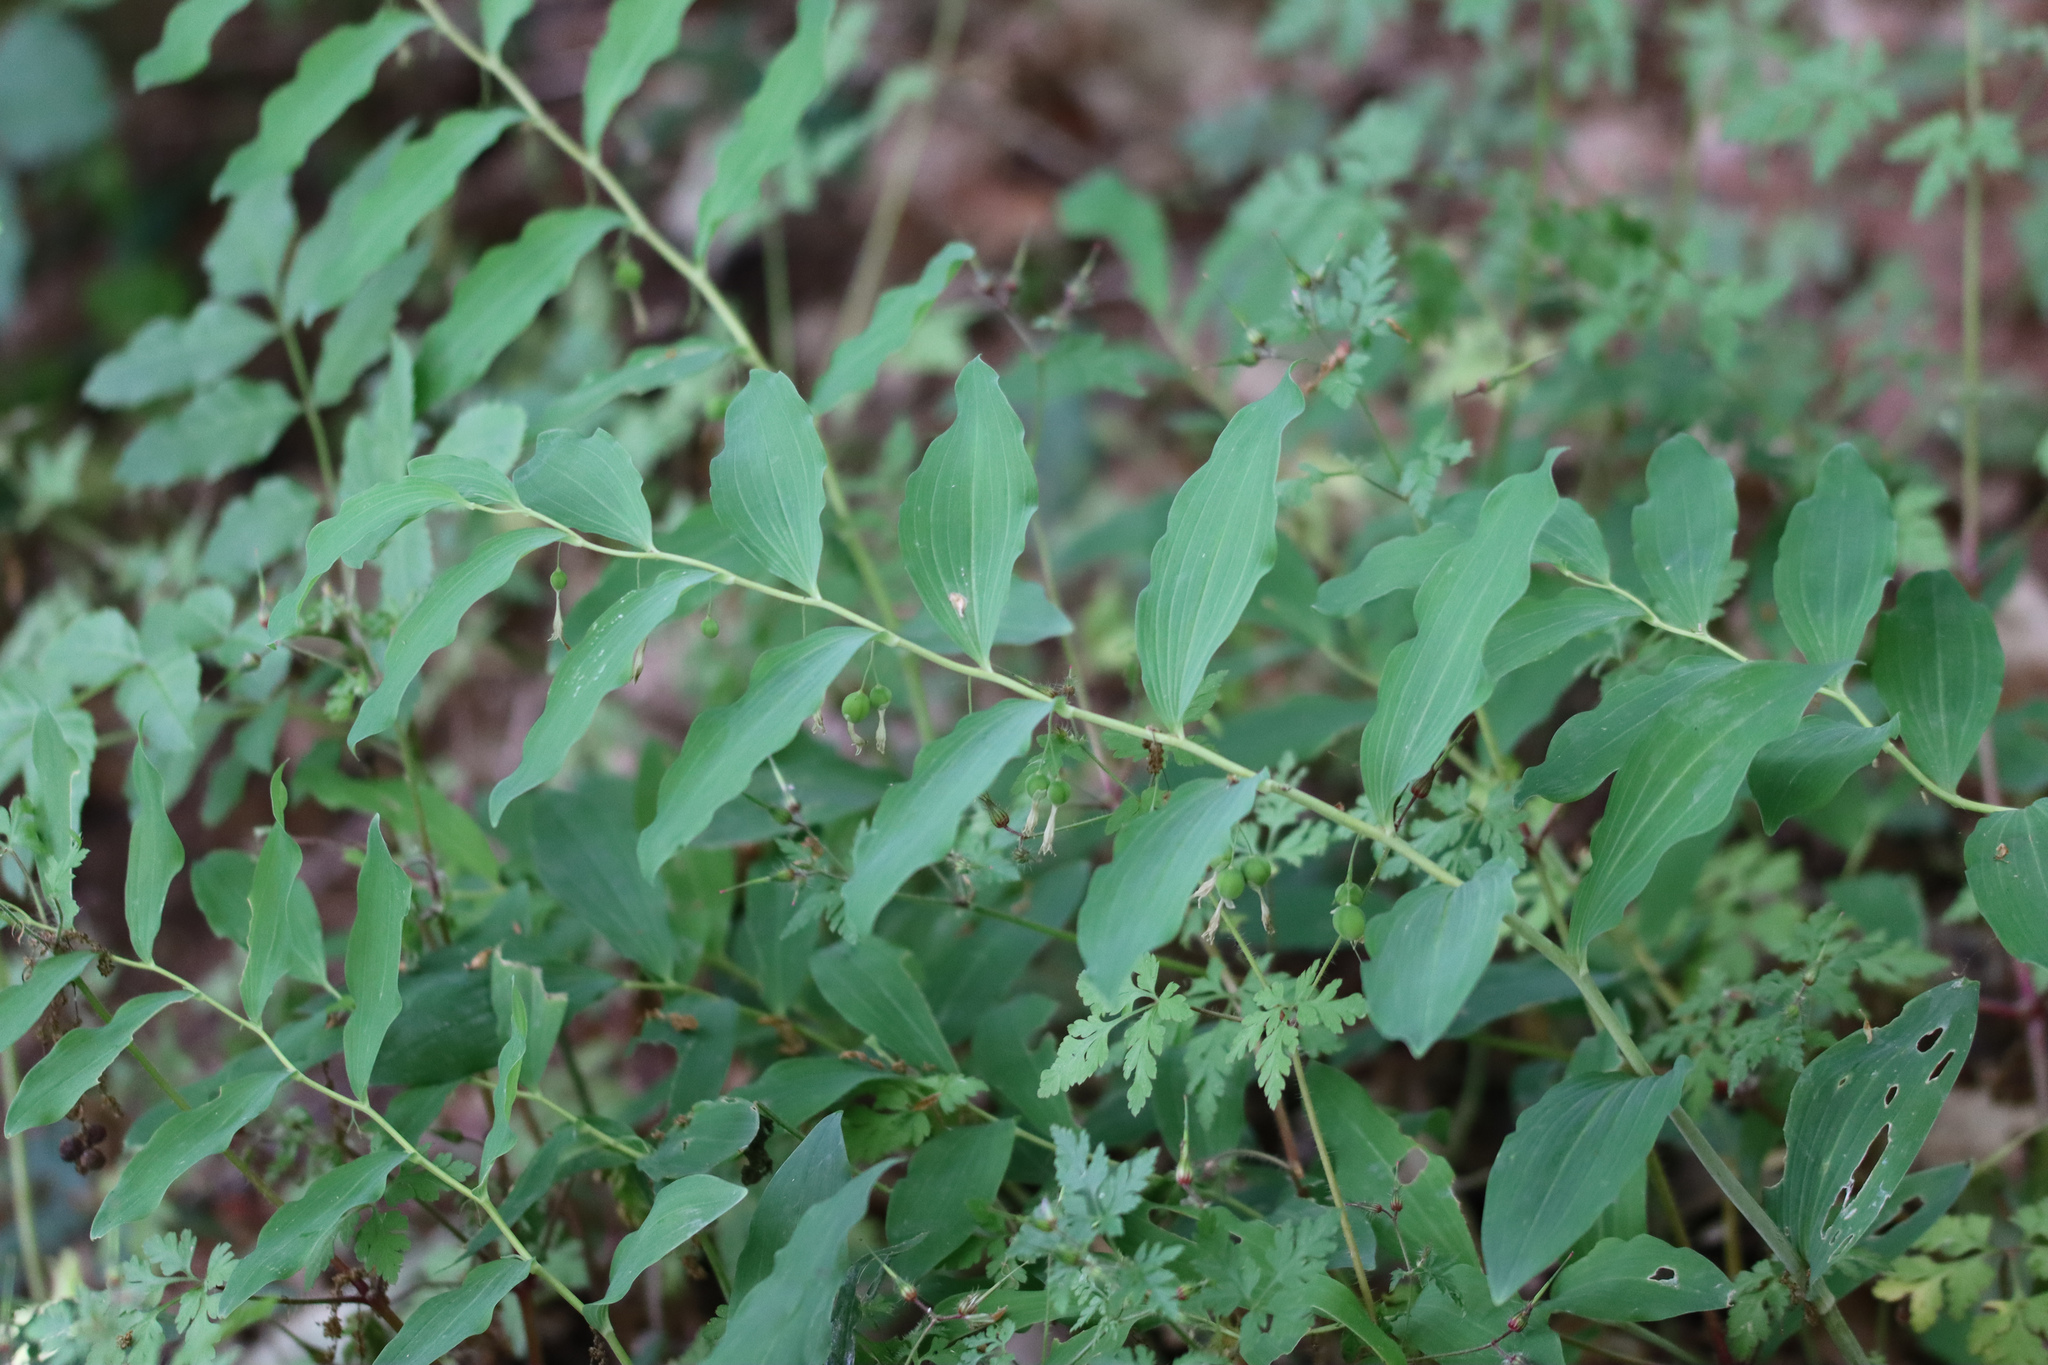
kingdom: Plantae
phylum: Tracheophyta
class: Liliopsida
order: Asparagales
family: Asparagaceae
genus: Polygonatum
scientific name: Polygonatum multiflorum
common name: Solomon's-seal
